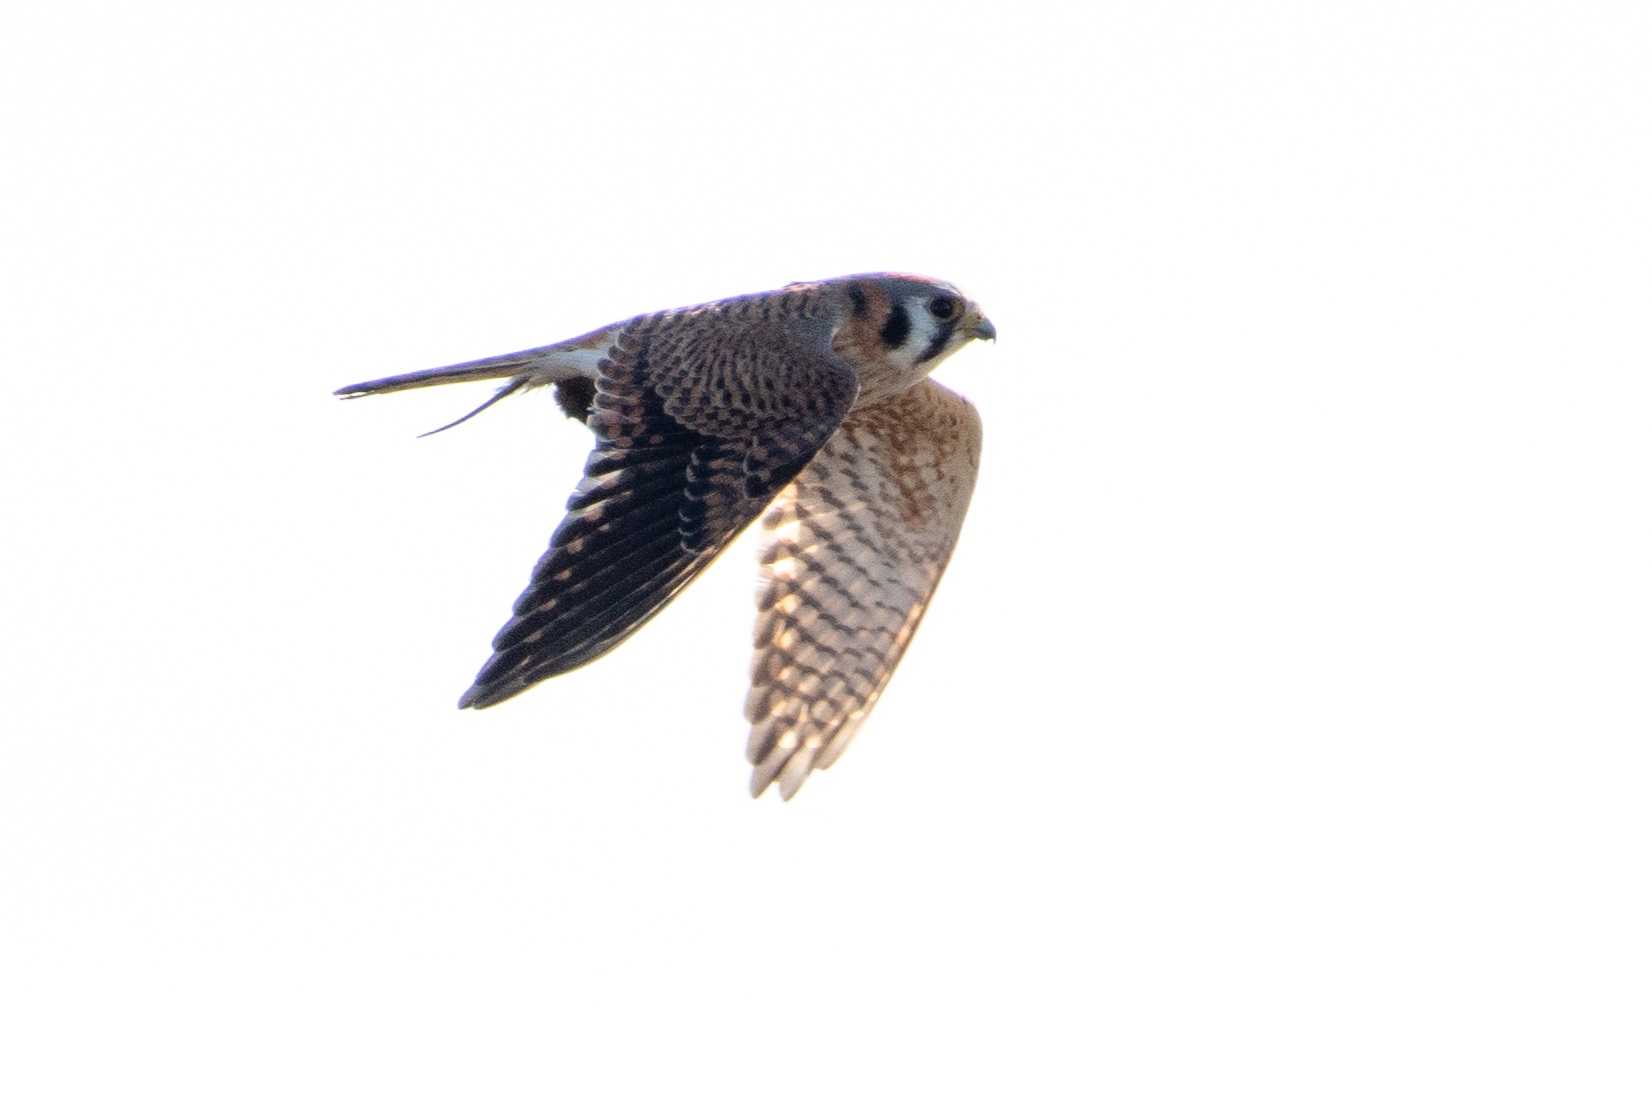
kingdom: Animalia
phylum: Chordata
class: Aves
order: Falconiformes
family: Falconidae
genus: Falco
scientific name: Falco sparverius
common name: American kestrel
